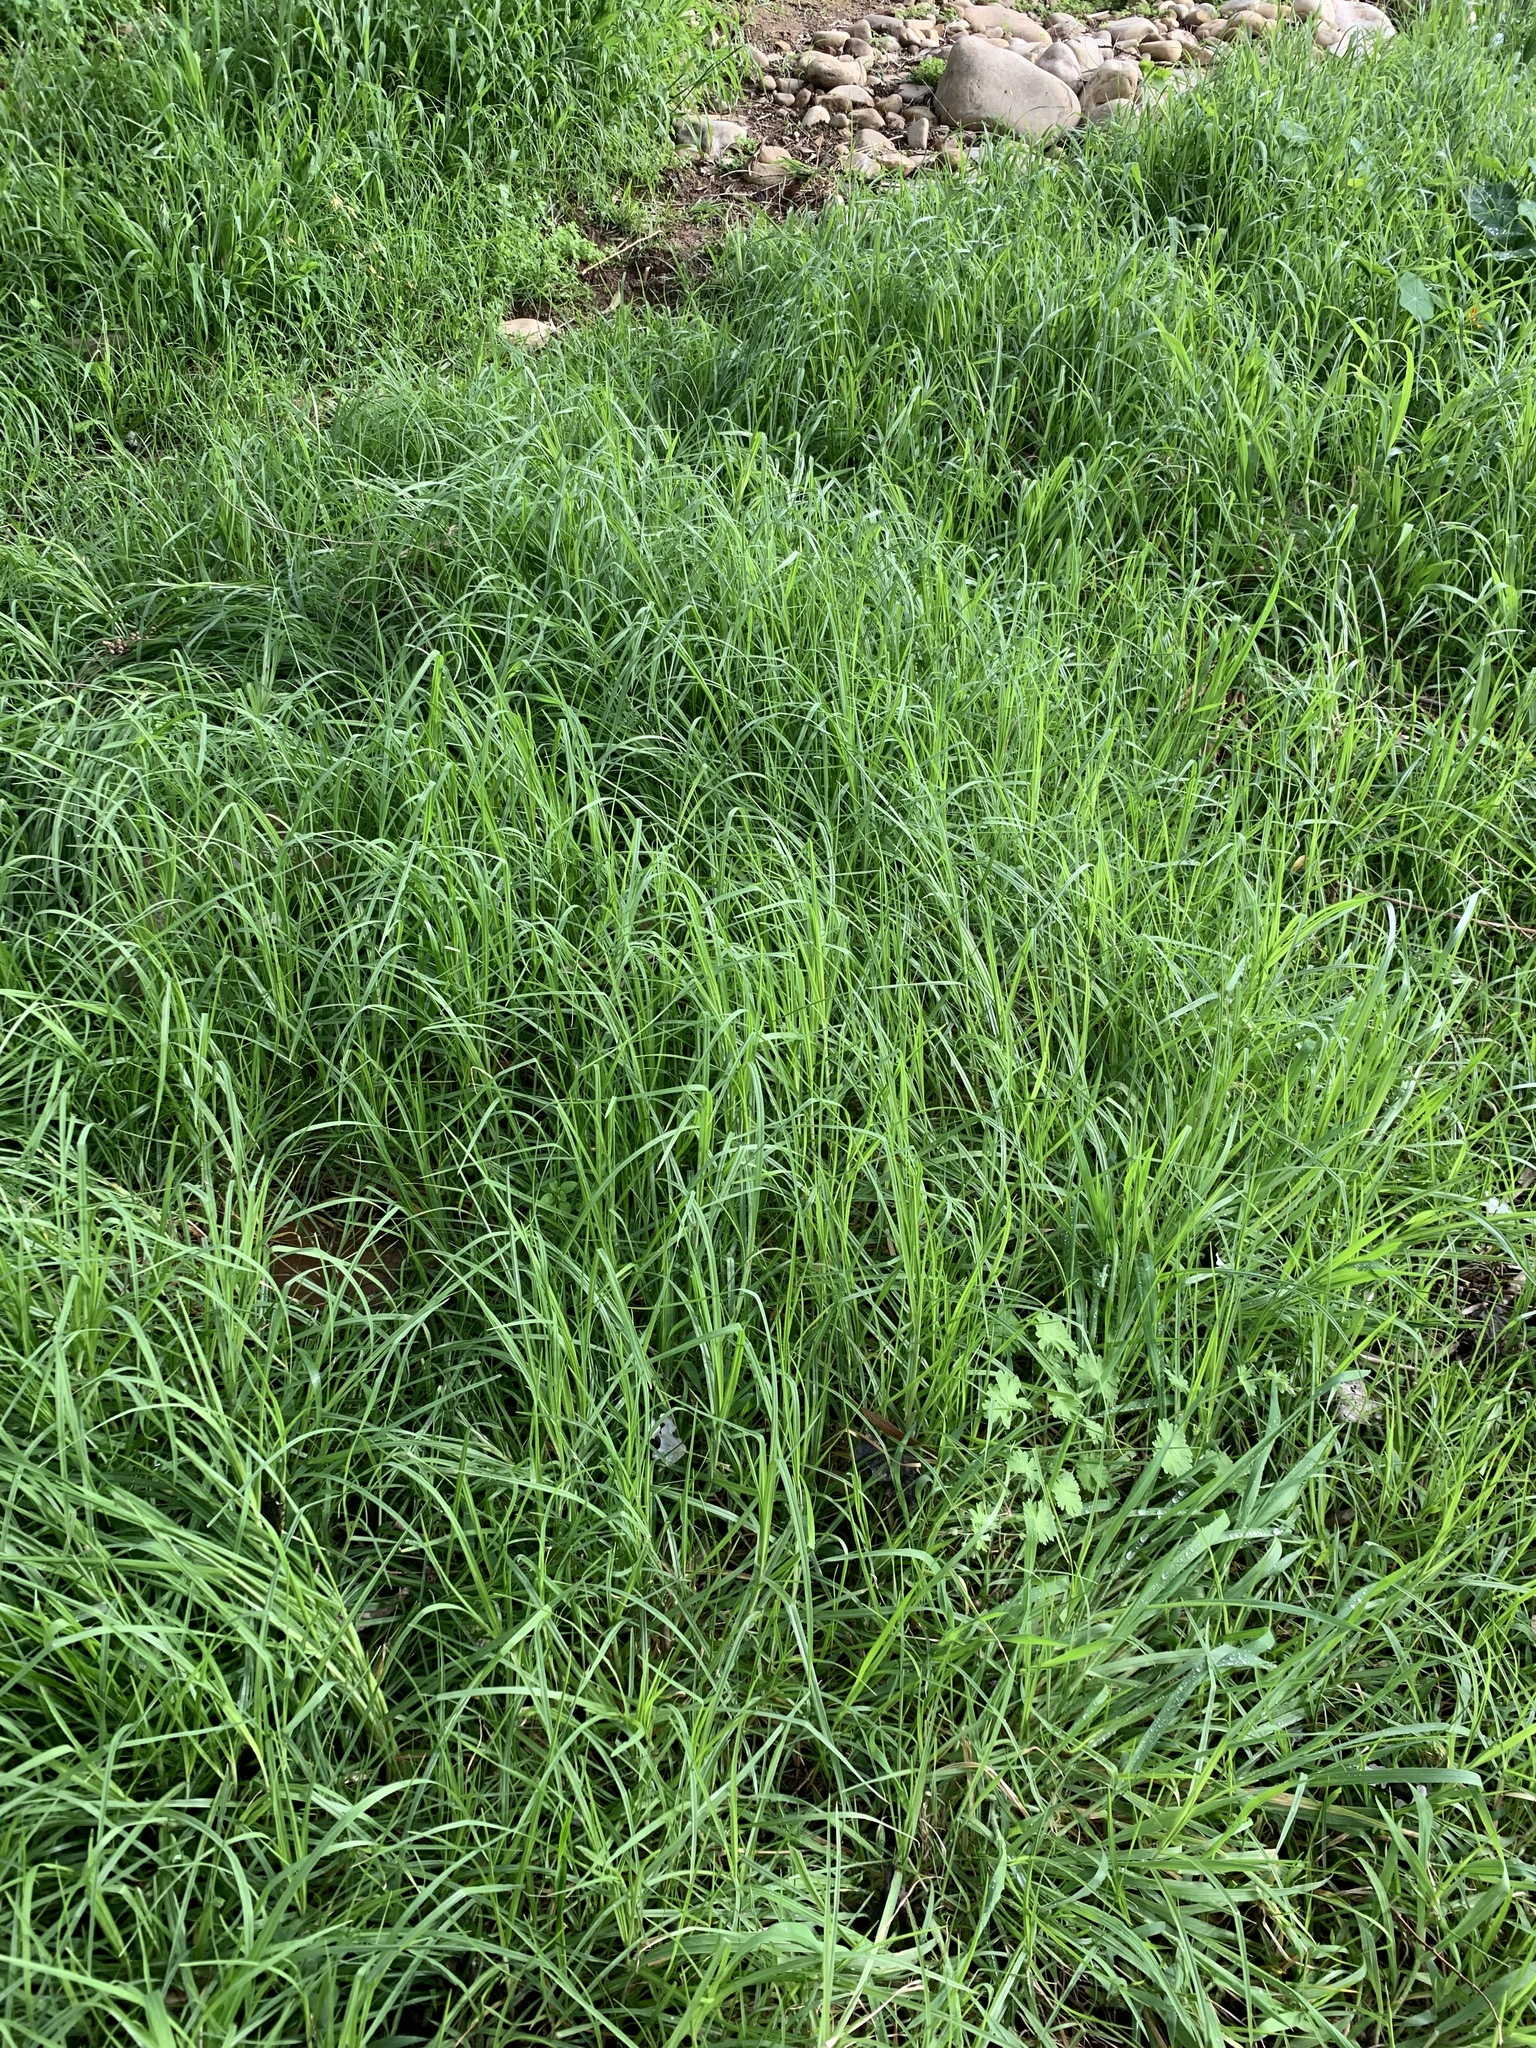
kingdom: Plantae
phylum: Tracheophyta
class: Liliopsida
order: Poales
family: Poaceae
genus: Cenchrus
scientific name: Cenchrus clandestinus
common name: Kikuyugrass
